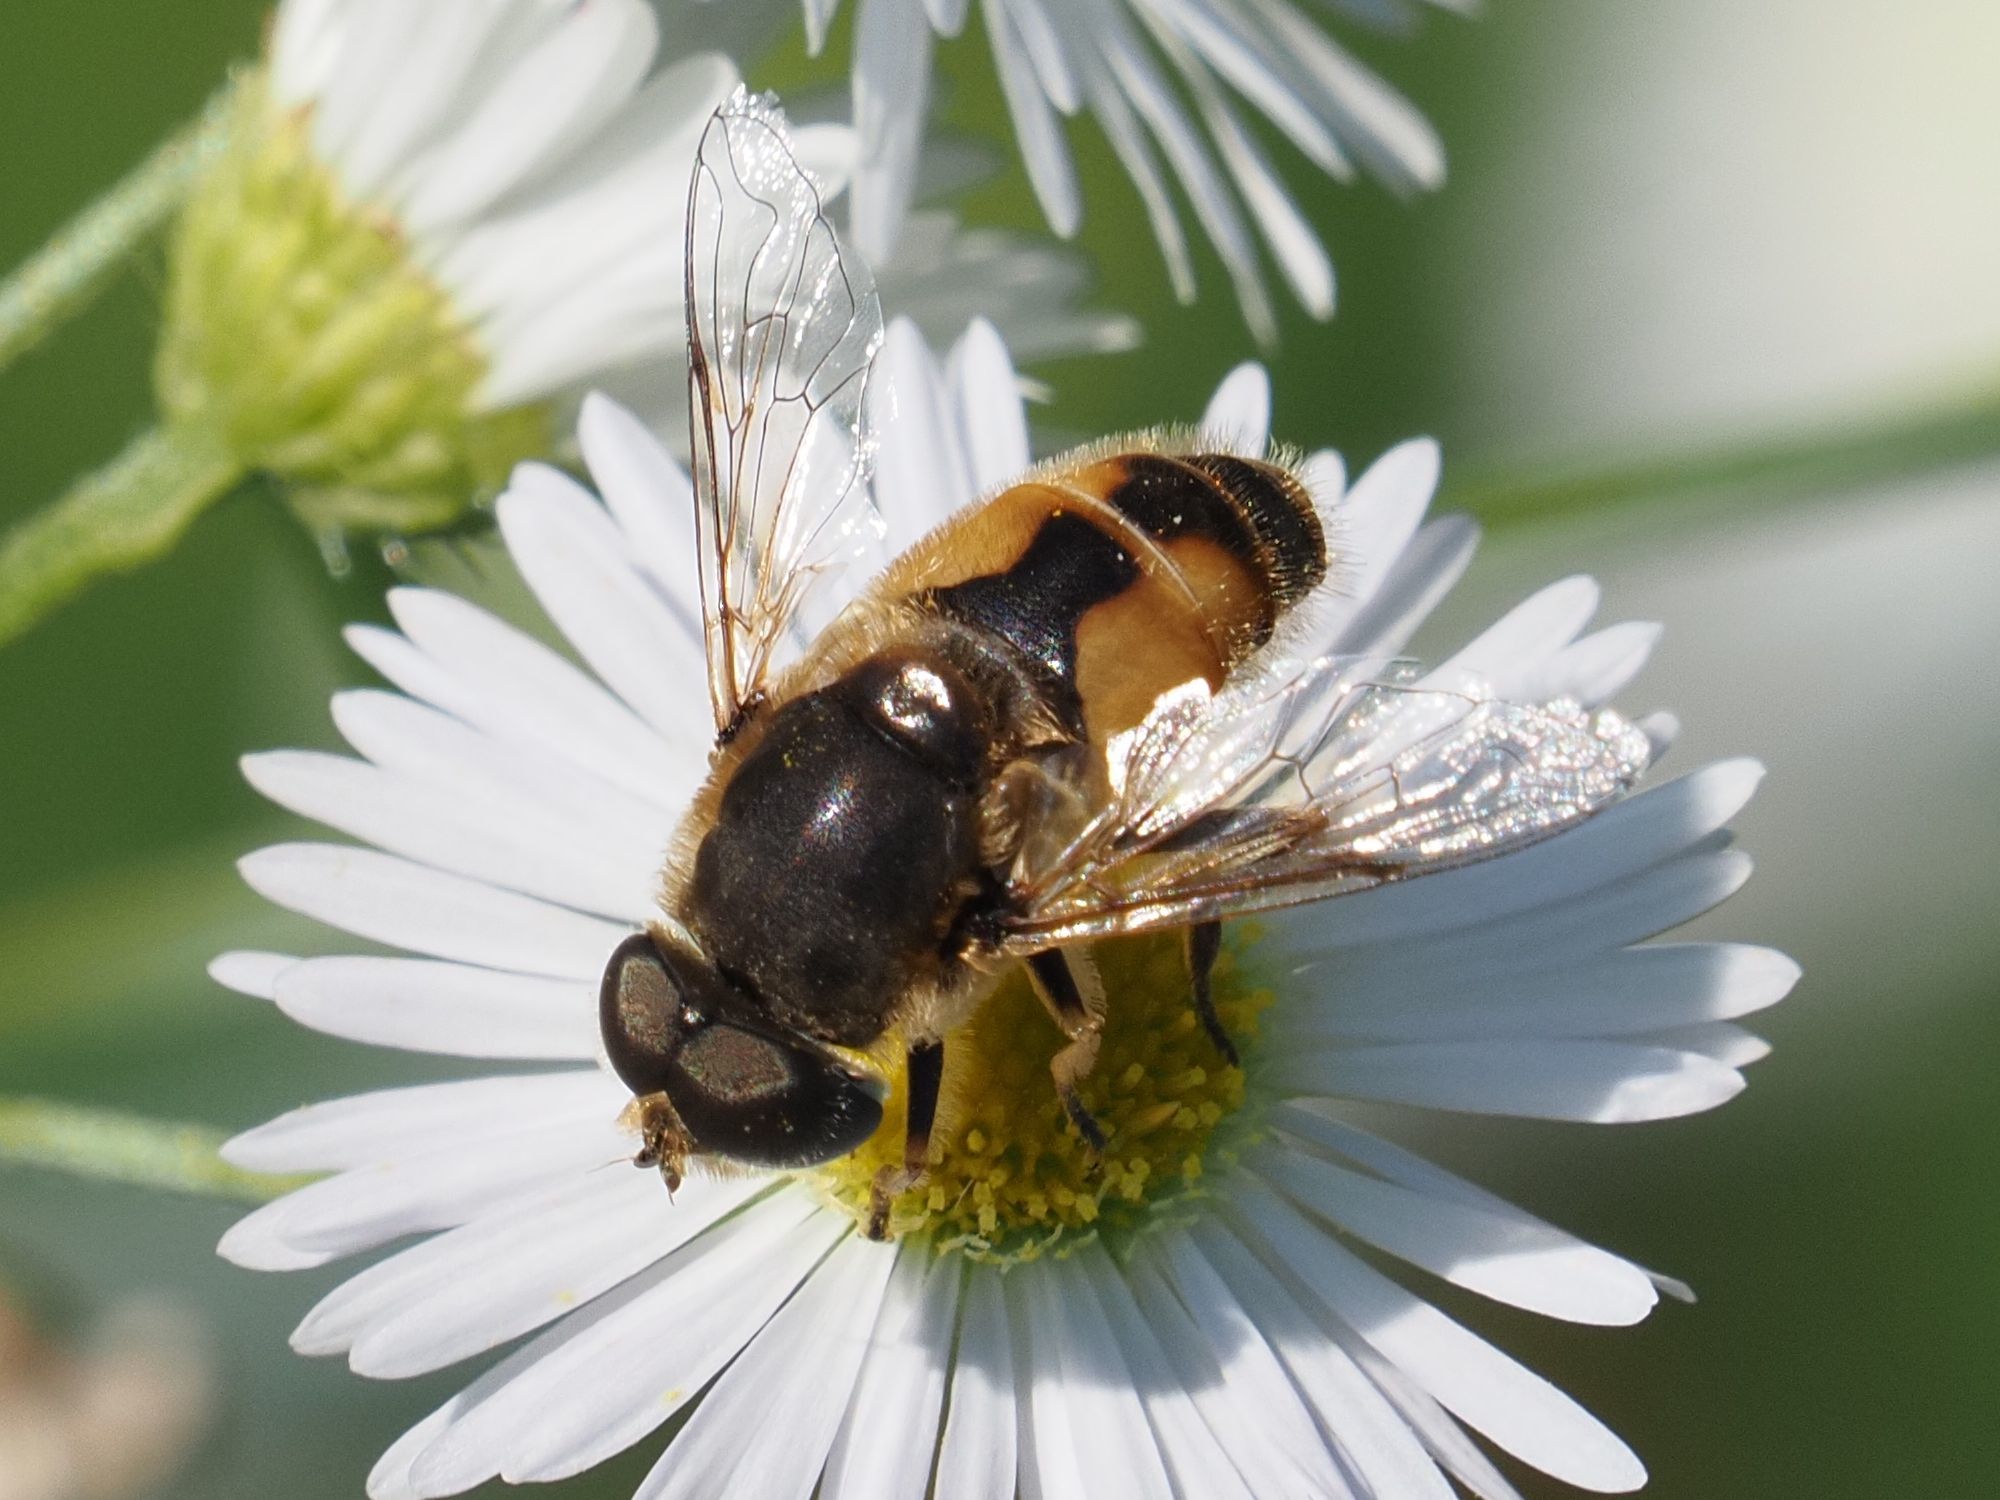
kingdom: Animalia
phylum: Arthropoda
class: Insecta
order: Diptera
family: Syrphidae
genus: Eristalis
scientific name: Eristalis arbustorum
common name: Hover fly
